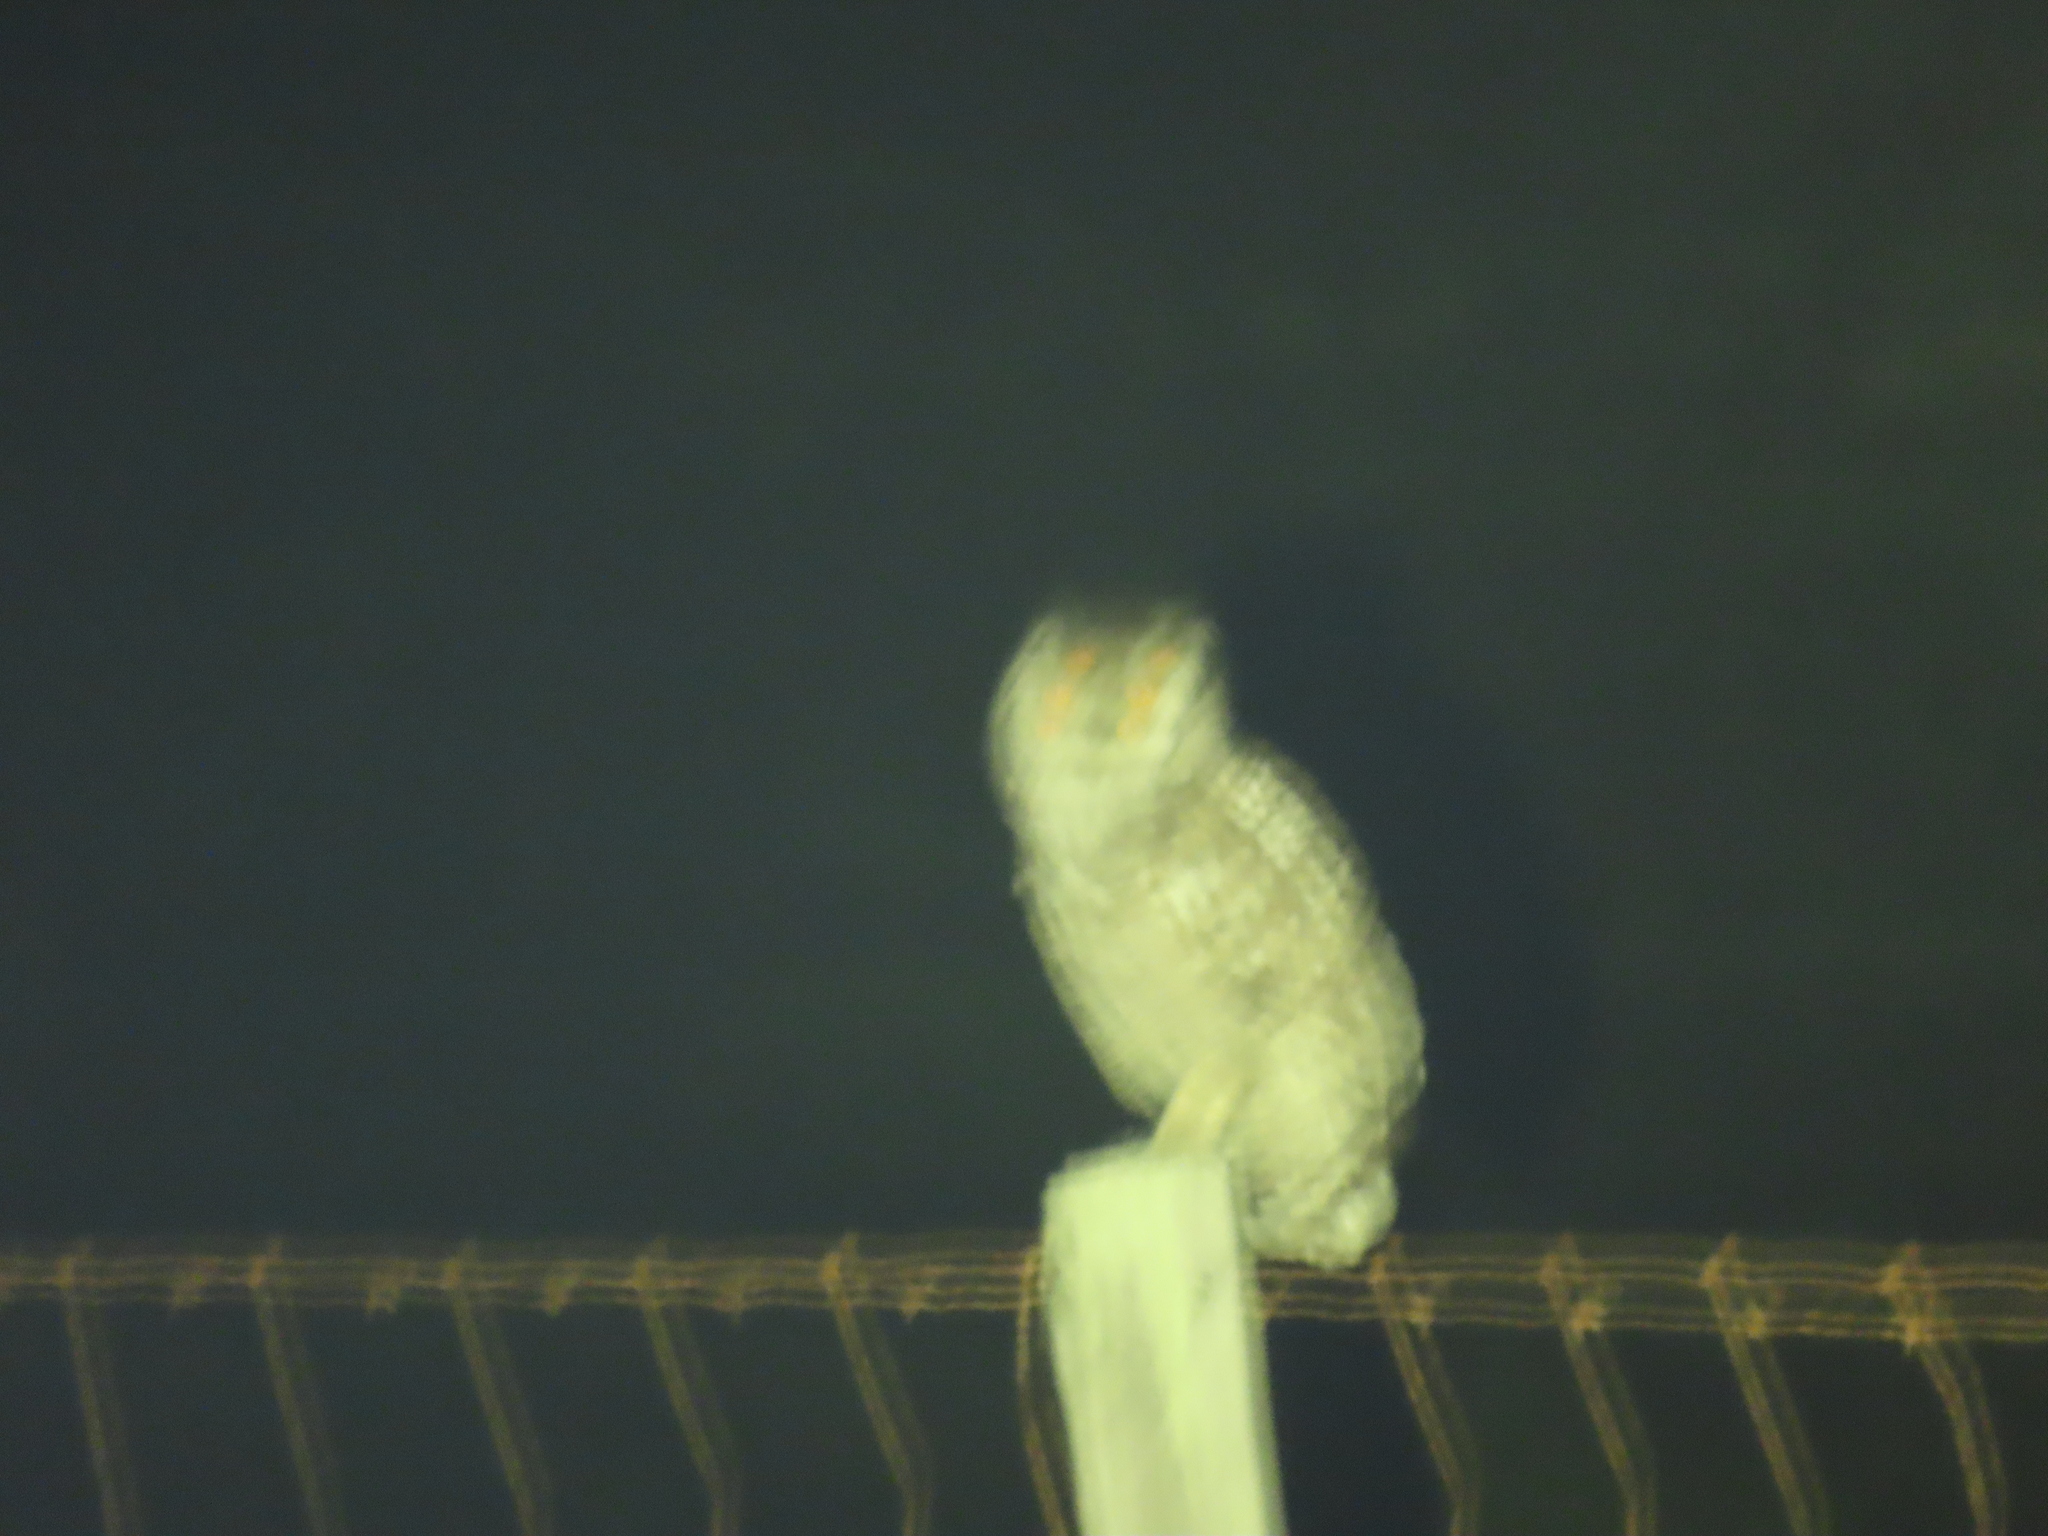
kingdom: Animalia
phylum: Chordata
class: Aves
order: Strigiformes
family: Strigidae
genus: Bubo
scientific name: Bubo africanus
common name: Spotted eagle-owl
